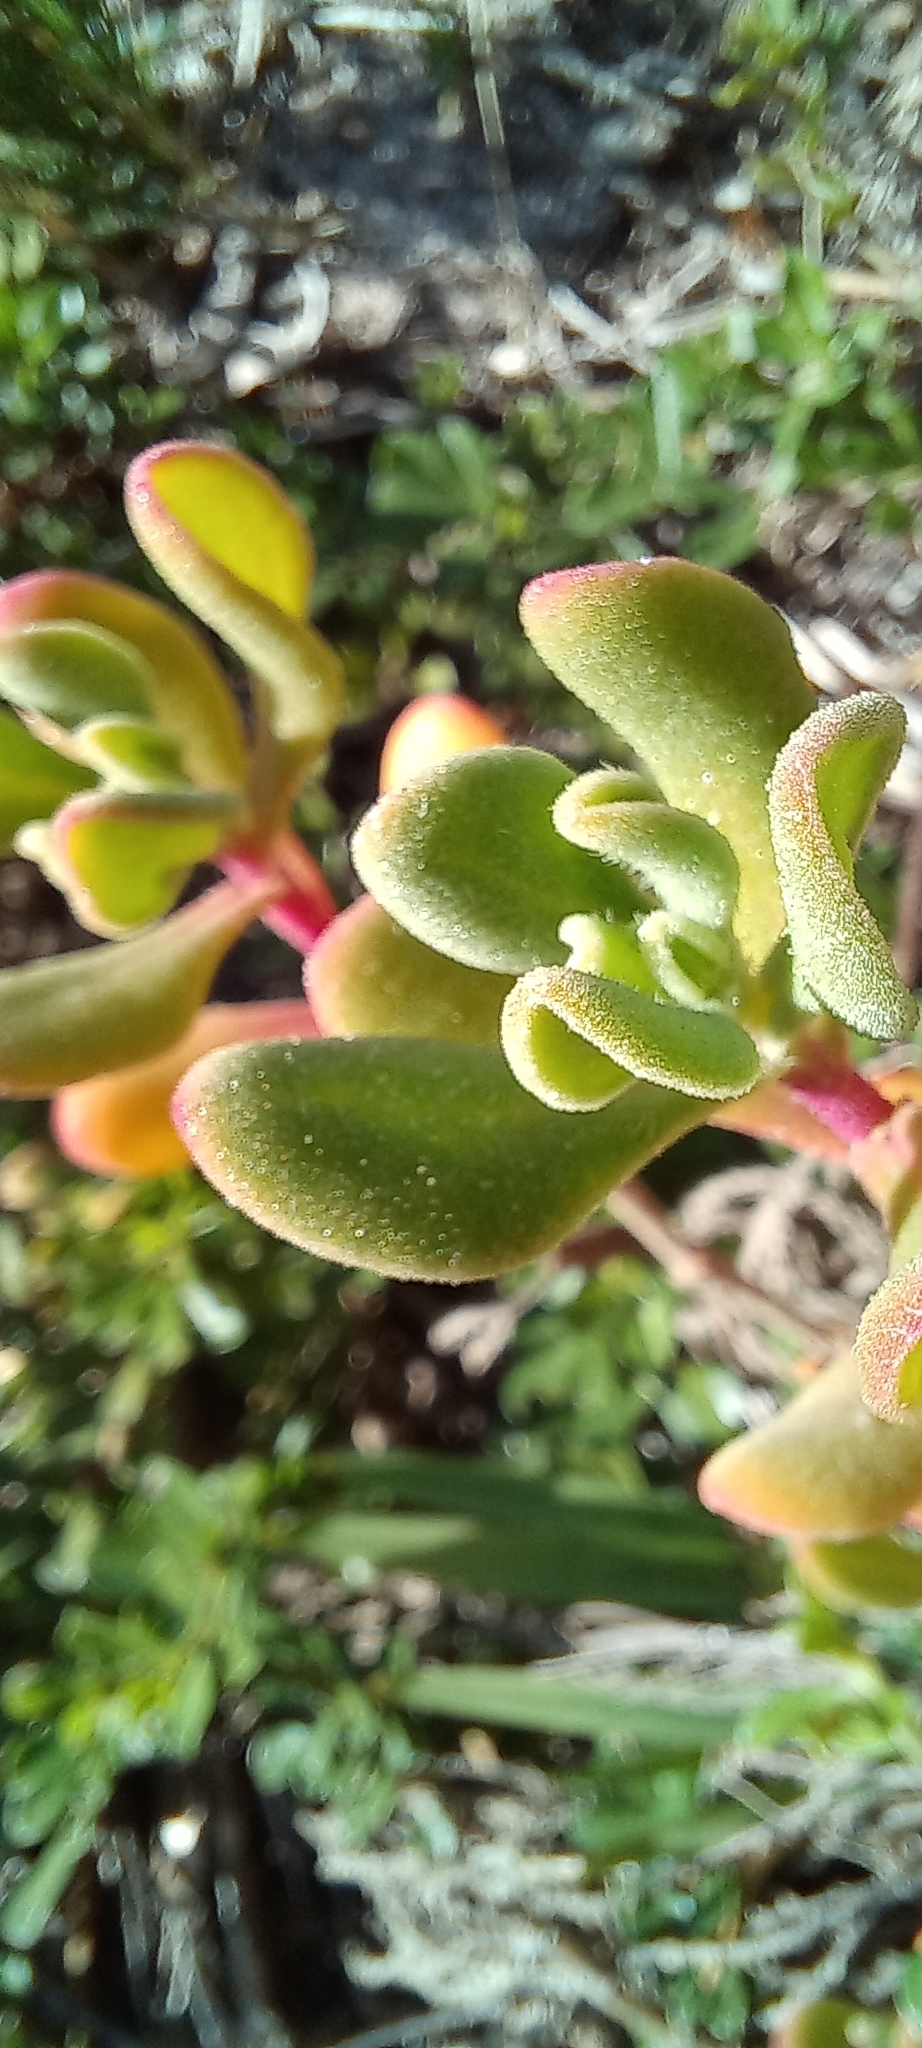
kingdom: Plantae
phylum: Tracheophyta
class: Magnoliopsida
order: Caryophyllales
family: Aizoaceae
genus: Tetragonia
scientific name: Tetragonia decumbens
